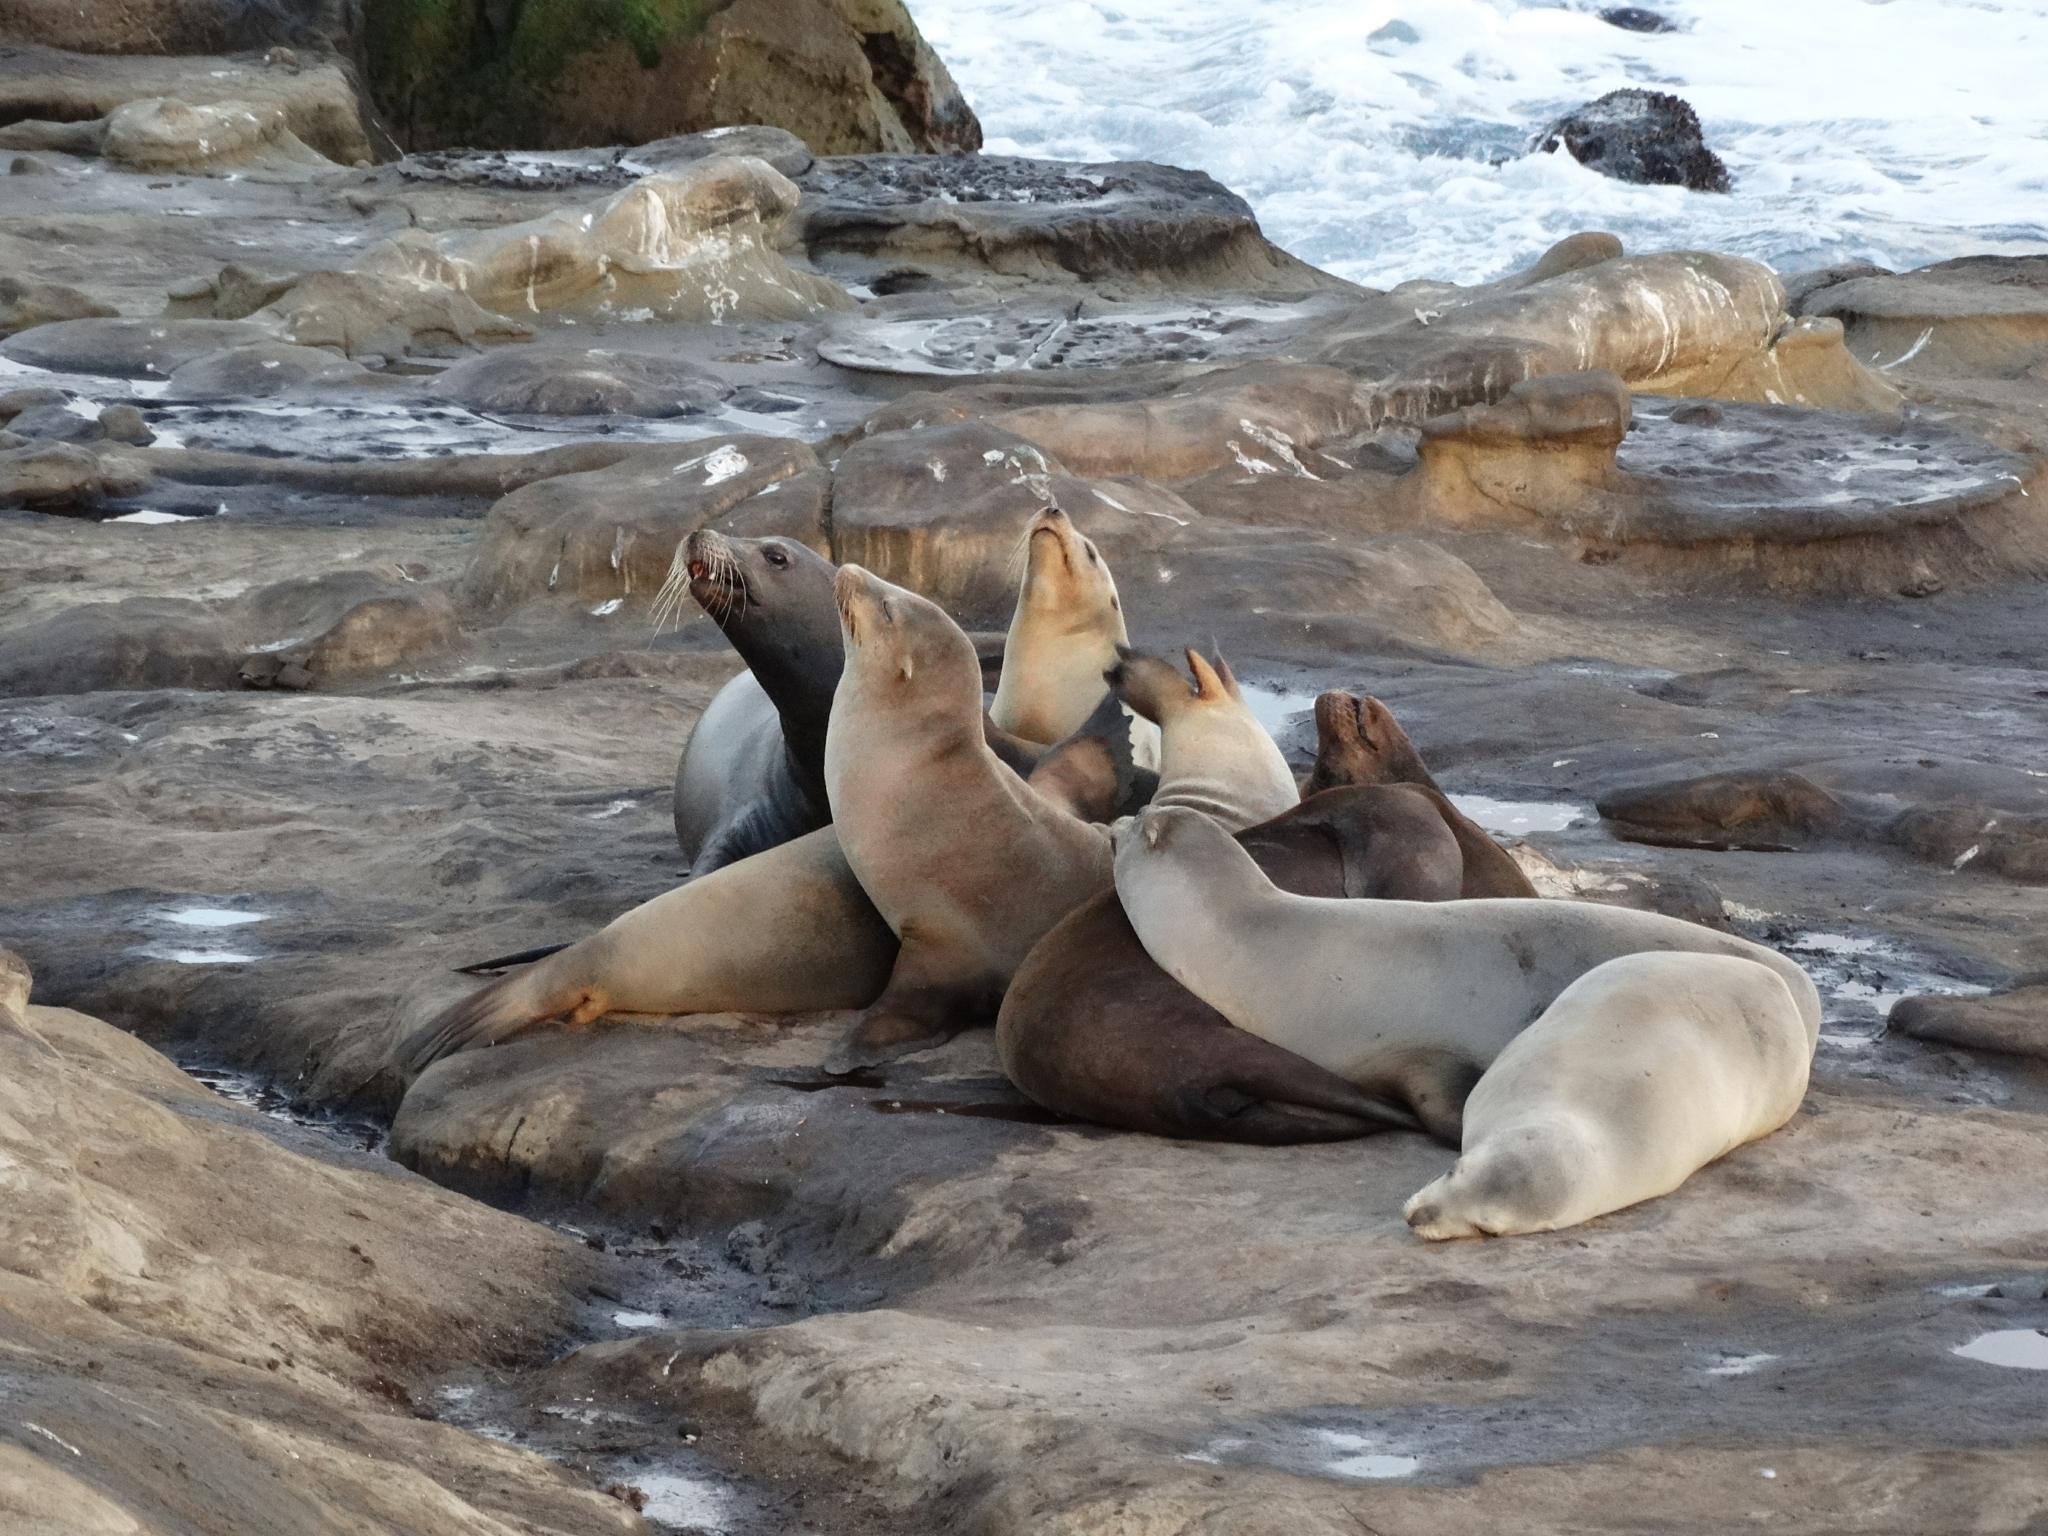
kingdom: Animalia
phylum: Chordata
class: Mammalia
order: Carnivora
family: Otariidae
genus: Zalophus
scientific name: Zalophus californianus
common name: California sea lion
